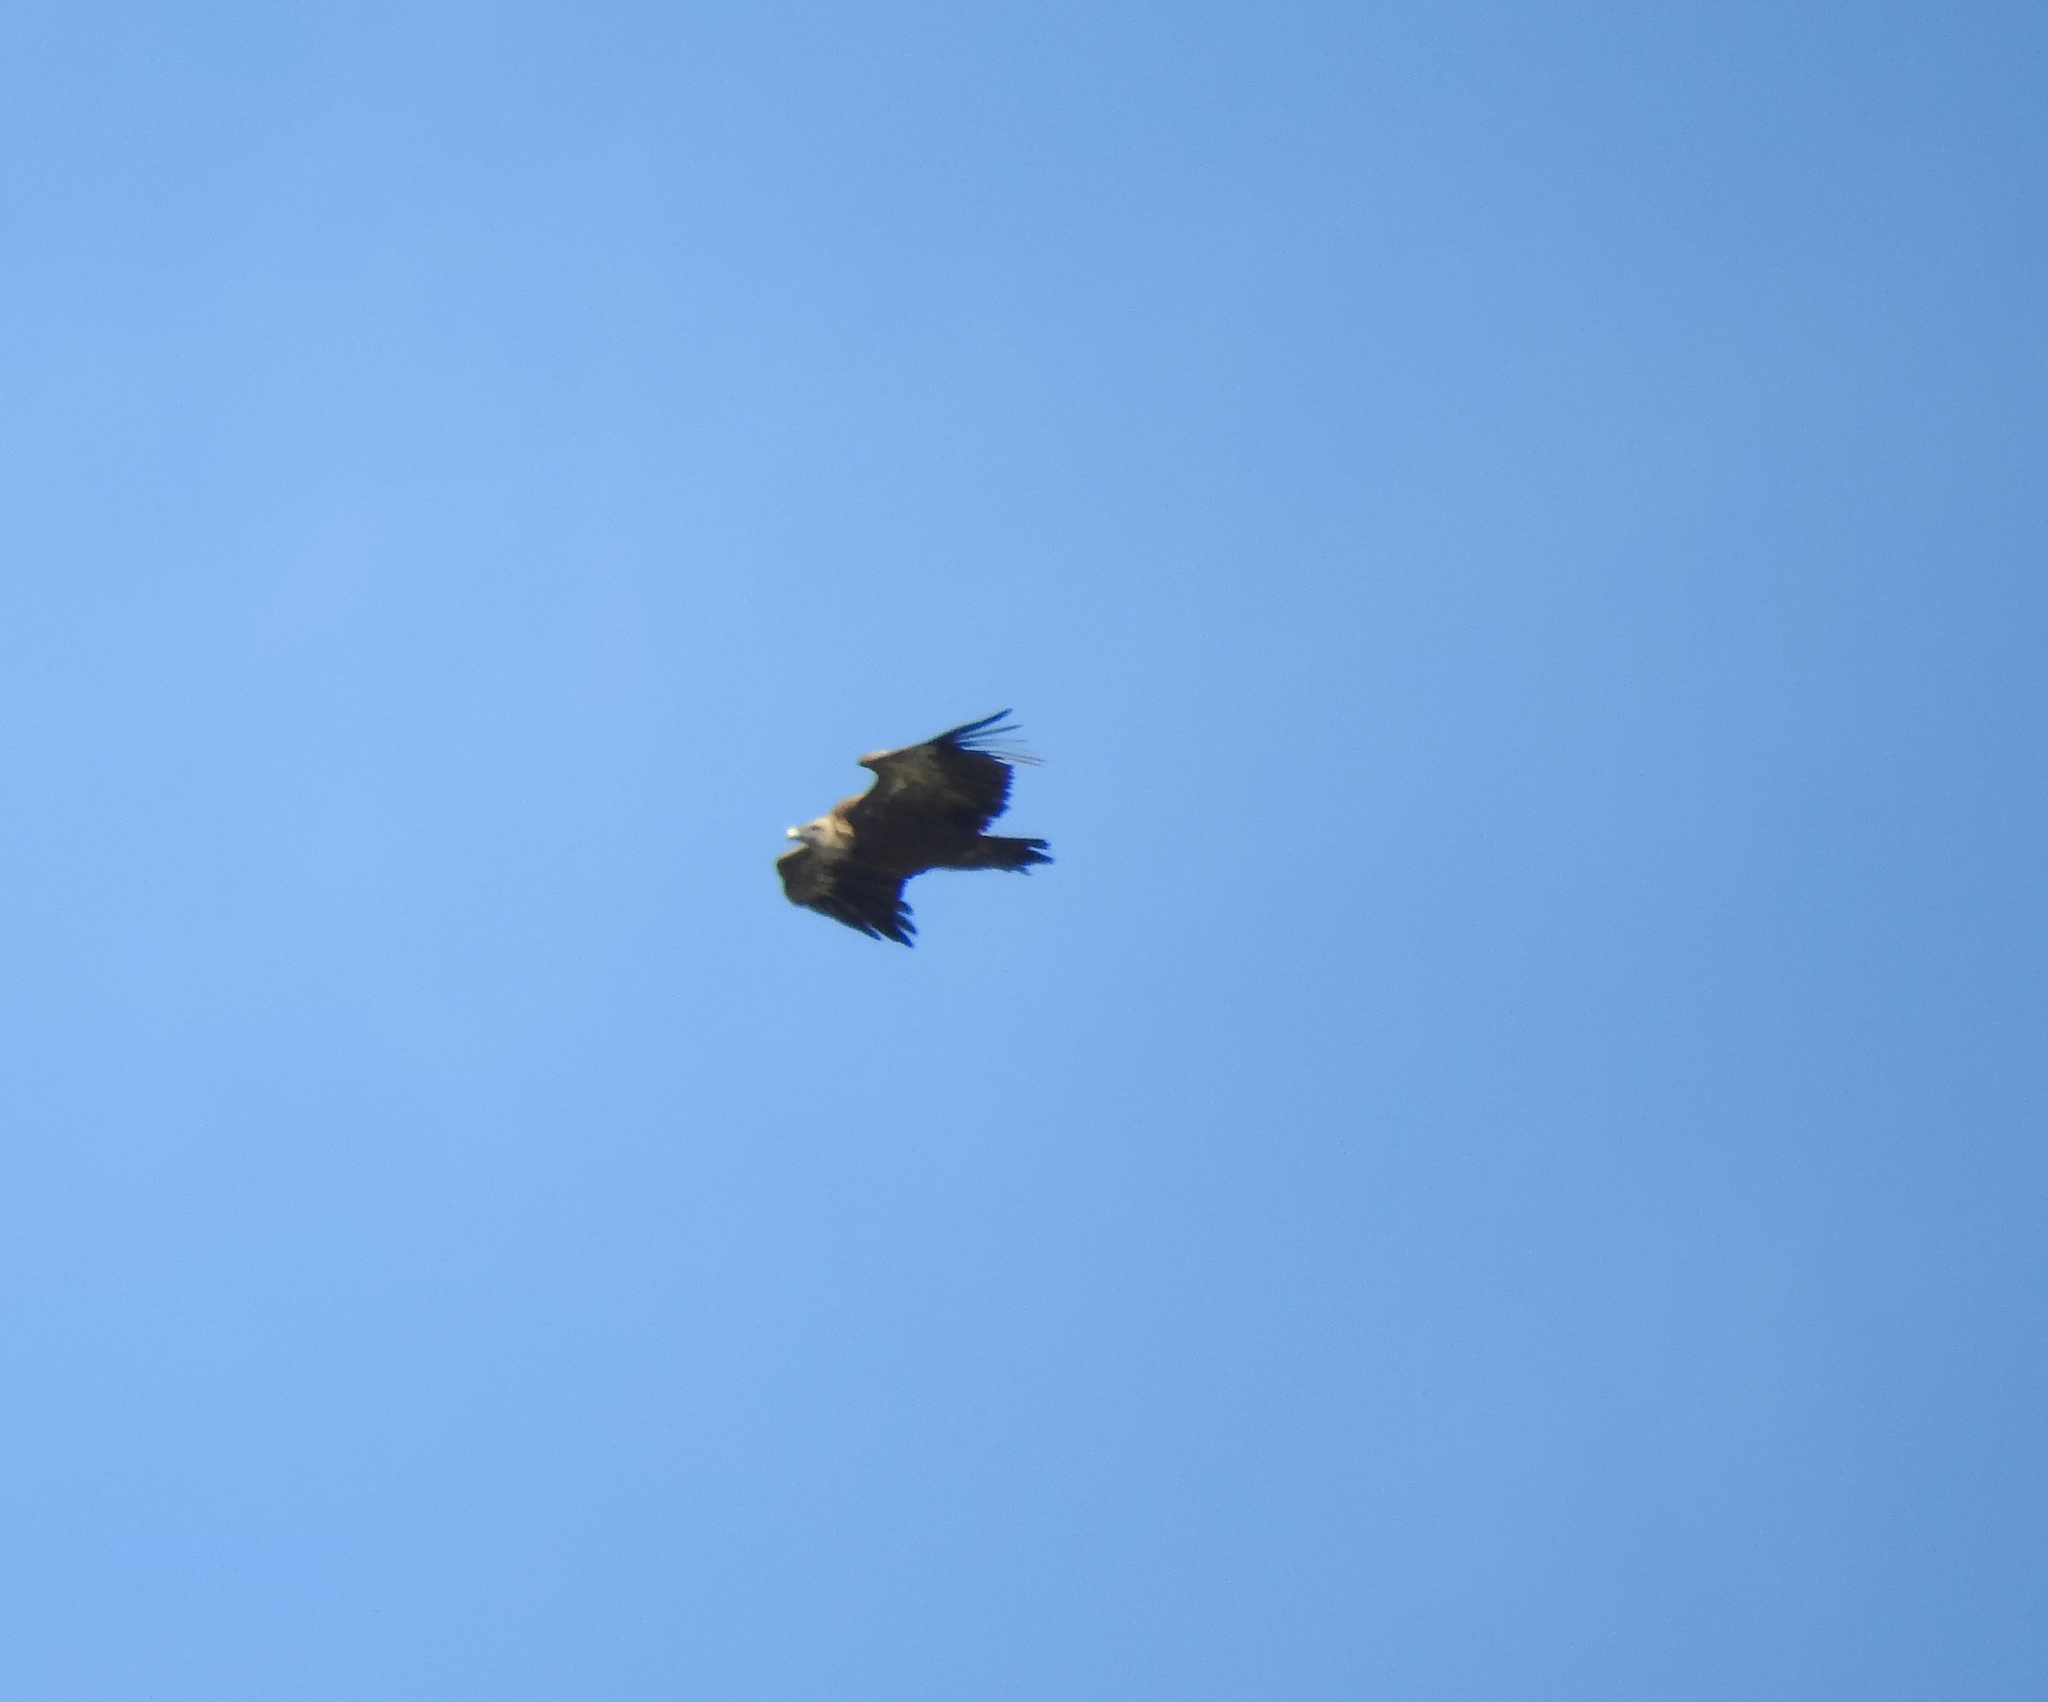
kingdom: Animalia
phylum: Chordata
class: Aves
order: Accipitriformes
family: Accipitridae
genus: Gyps
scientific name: Gyps fulvus
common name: Griffon vulture
